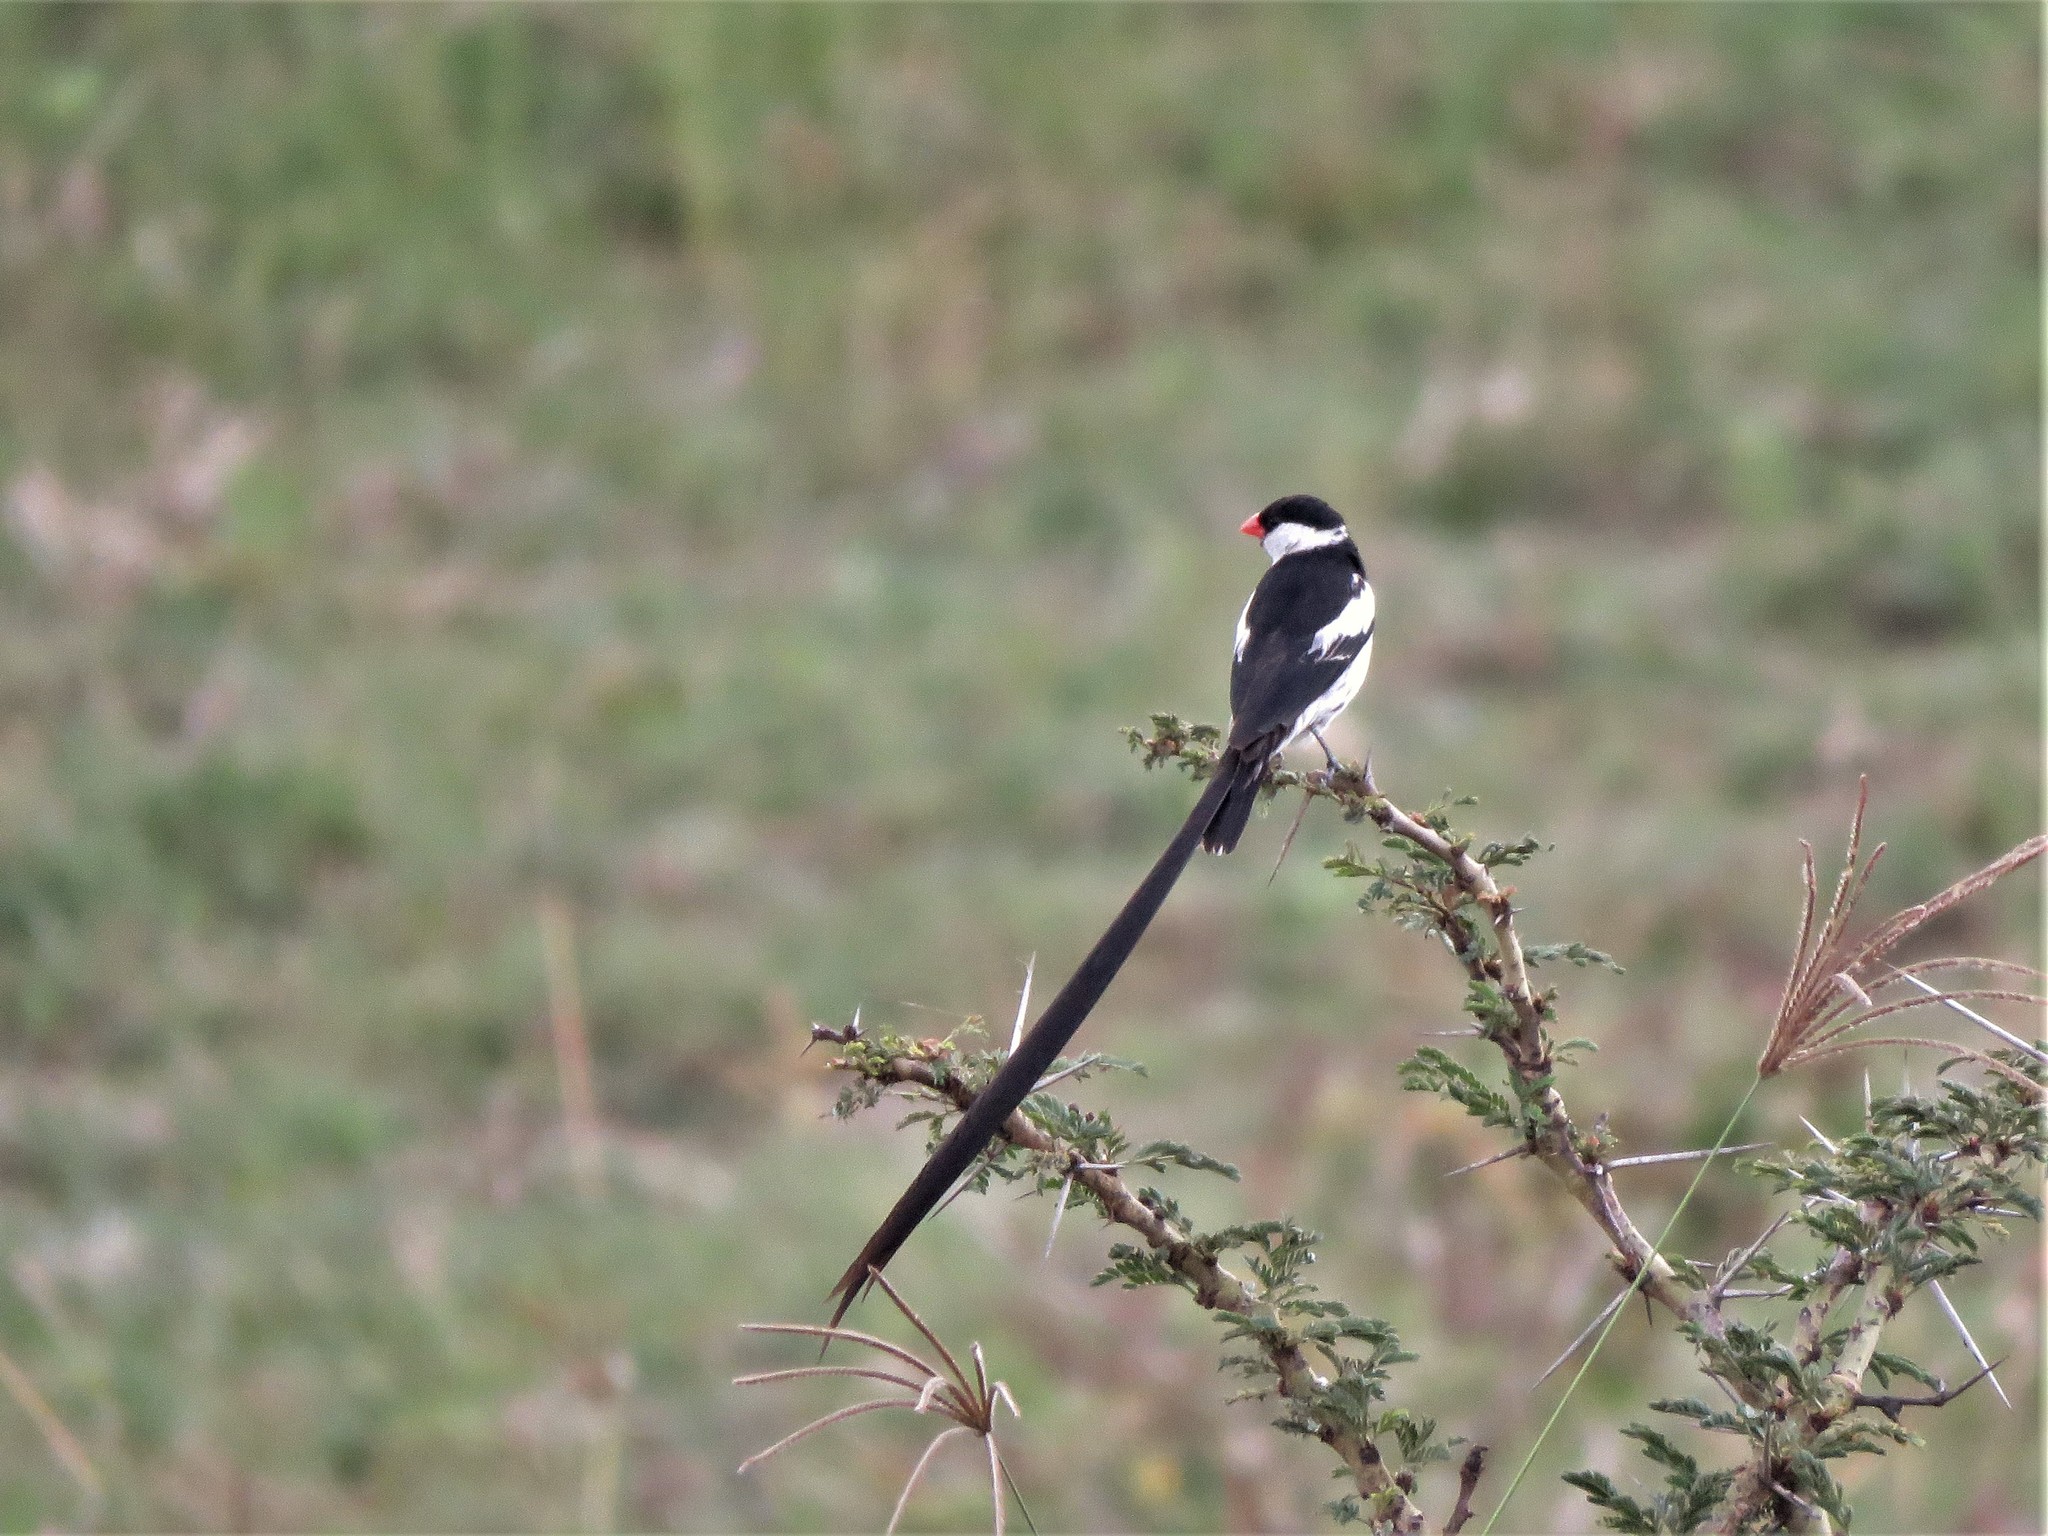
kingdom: Animalia
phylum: Chordata
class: Aves
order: Passeriformes
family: Viduidae
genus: Vidua
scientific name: Vidua macroura
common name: Pin-tailed whydah
